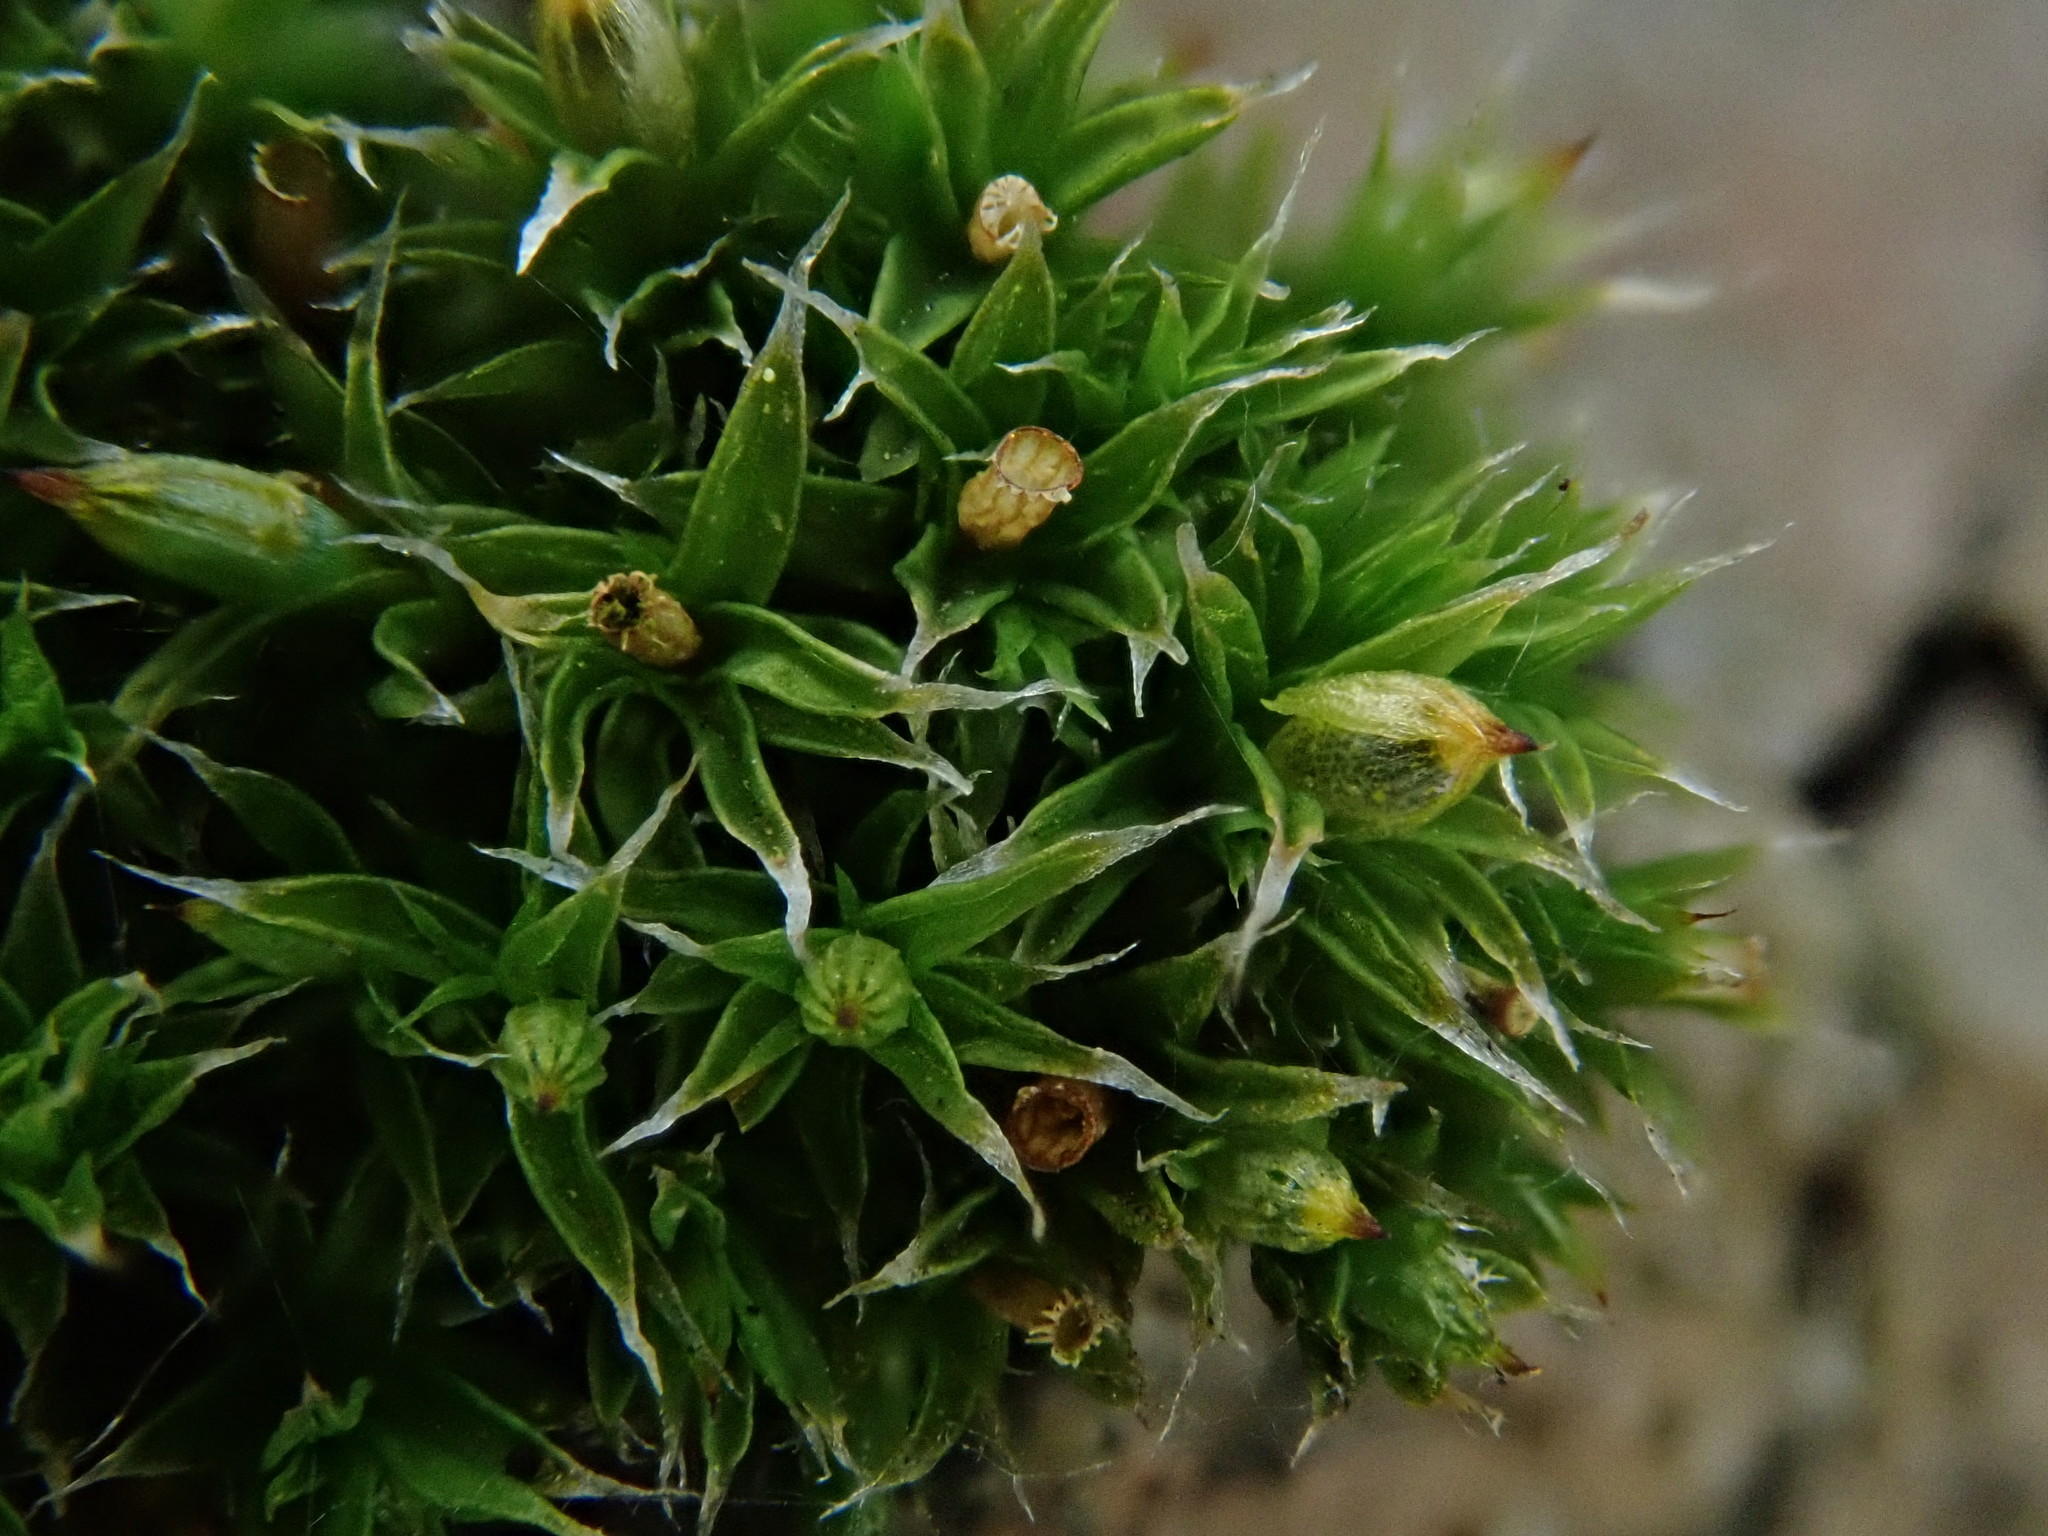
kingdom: Plantae
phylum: Bryophyta
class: Bryopsida
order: Orthotrichales
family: Orthotrichaceae
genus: Orthotrichum
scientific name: Orthotrichum diaphanum
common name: White-tipped bristle-moss
